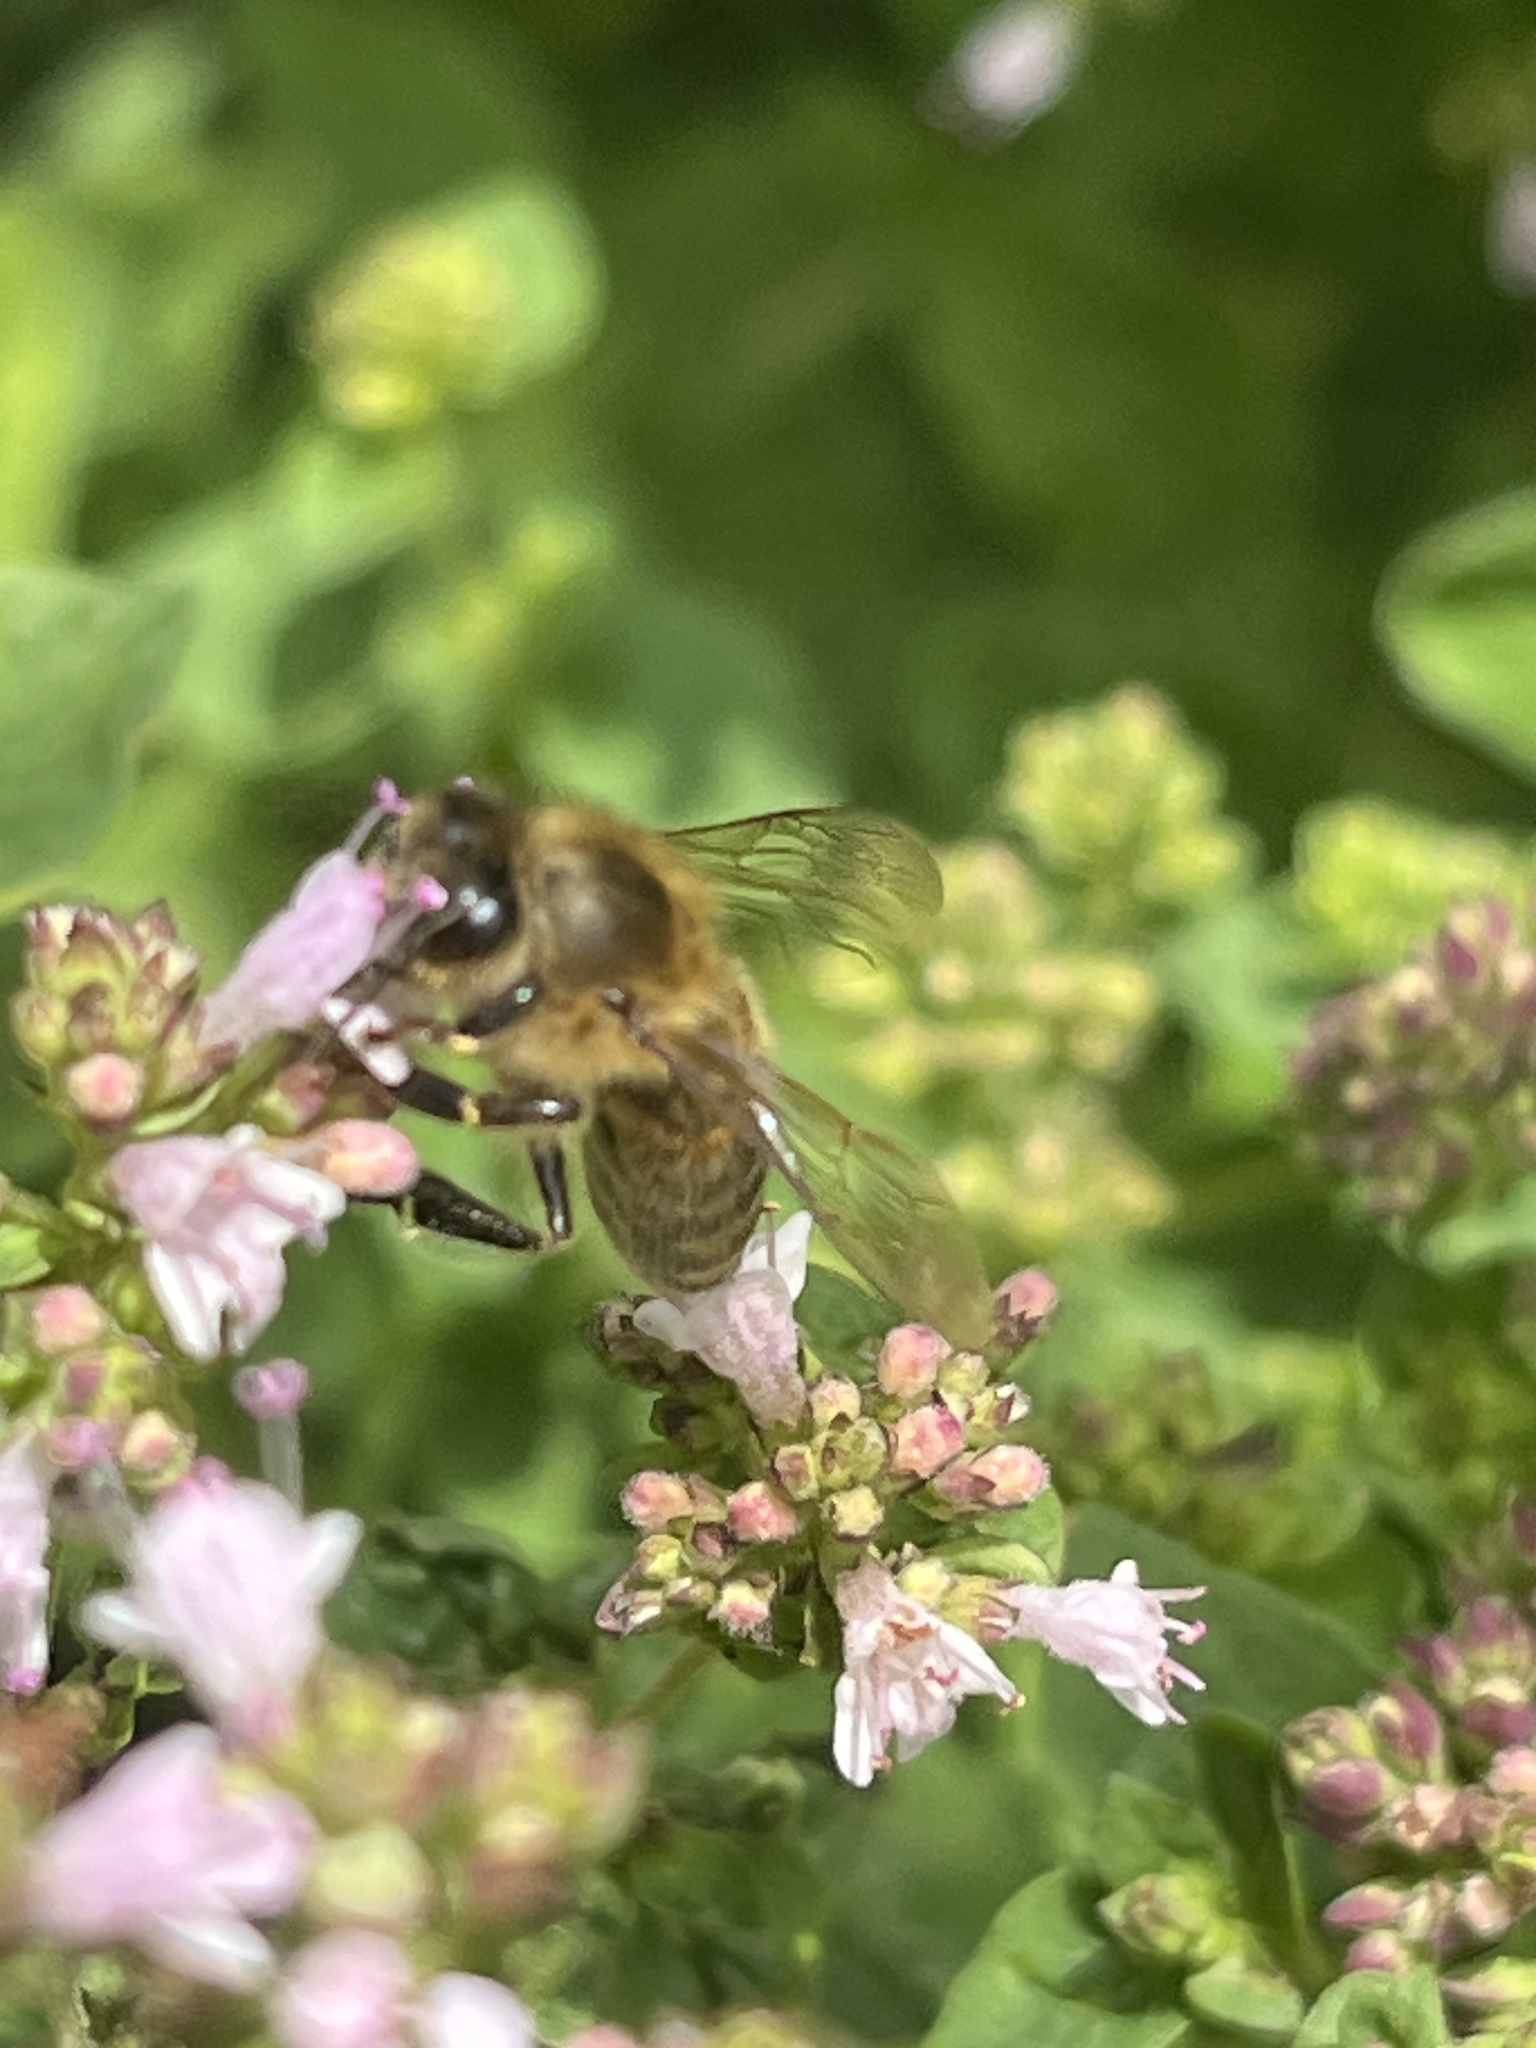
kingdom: Animalia
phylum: Arthropoda
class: Insecta
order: Hymenoptera
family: Apidae
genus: Apis
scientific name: Apis mellifera
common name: Honey bee
